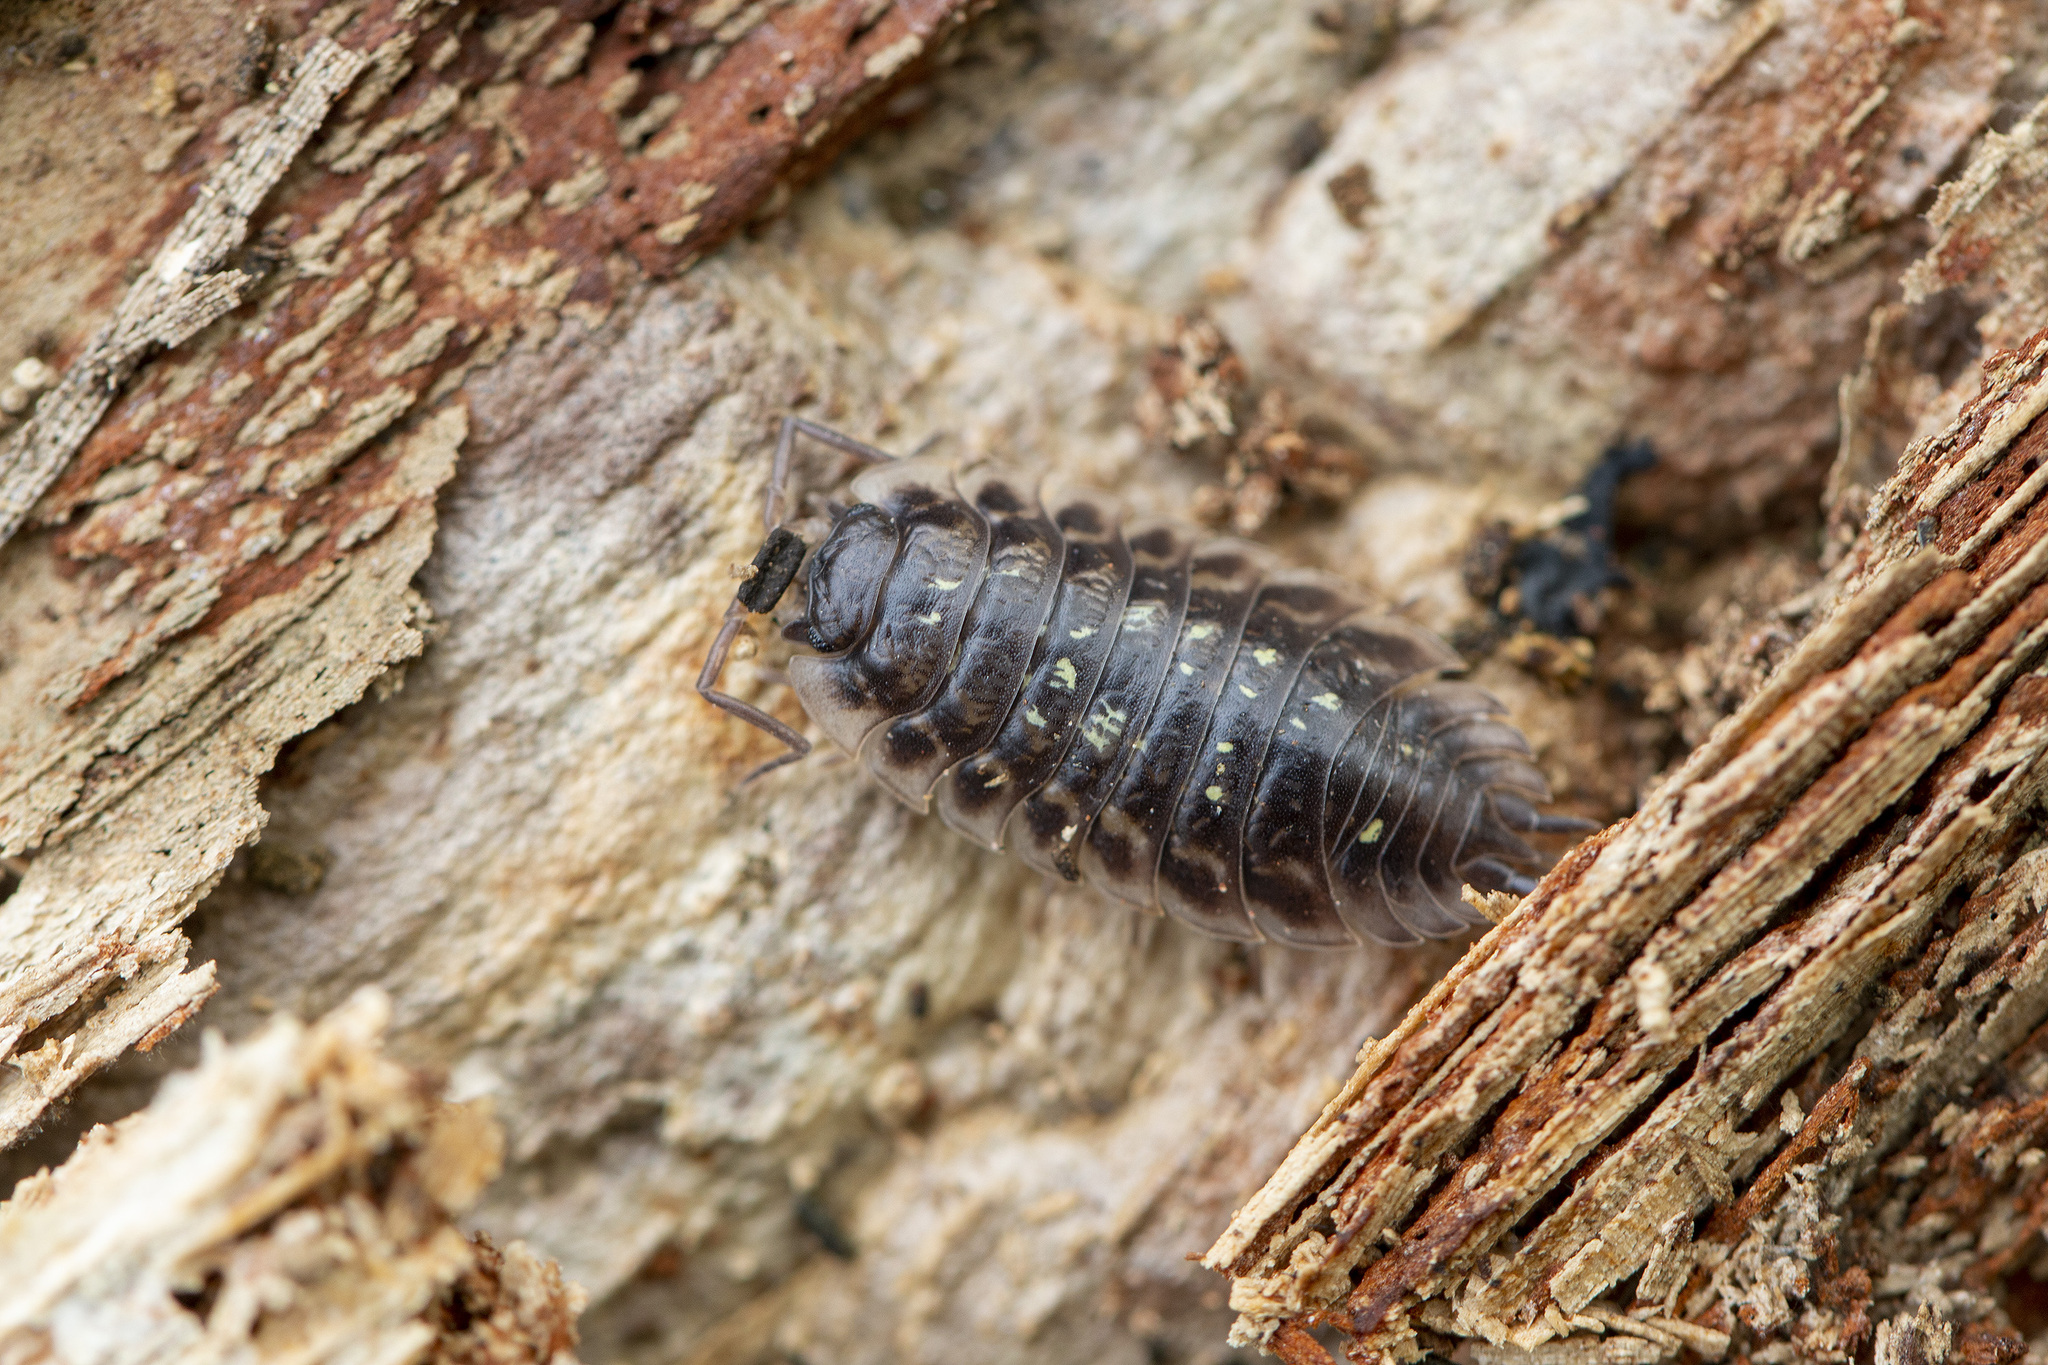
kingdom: Animalia
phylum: Arthropoda
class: Malacostraca
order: Isopoda
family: Oniscidae
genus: Oniscus
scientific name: Oniscus asellus
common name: Common shiny woodlouse
